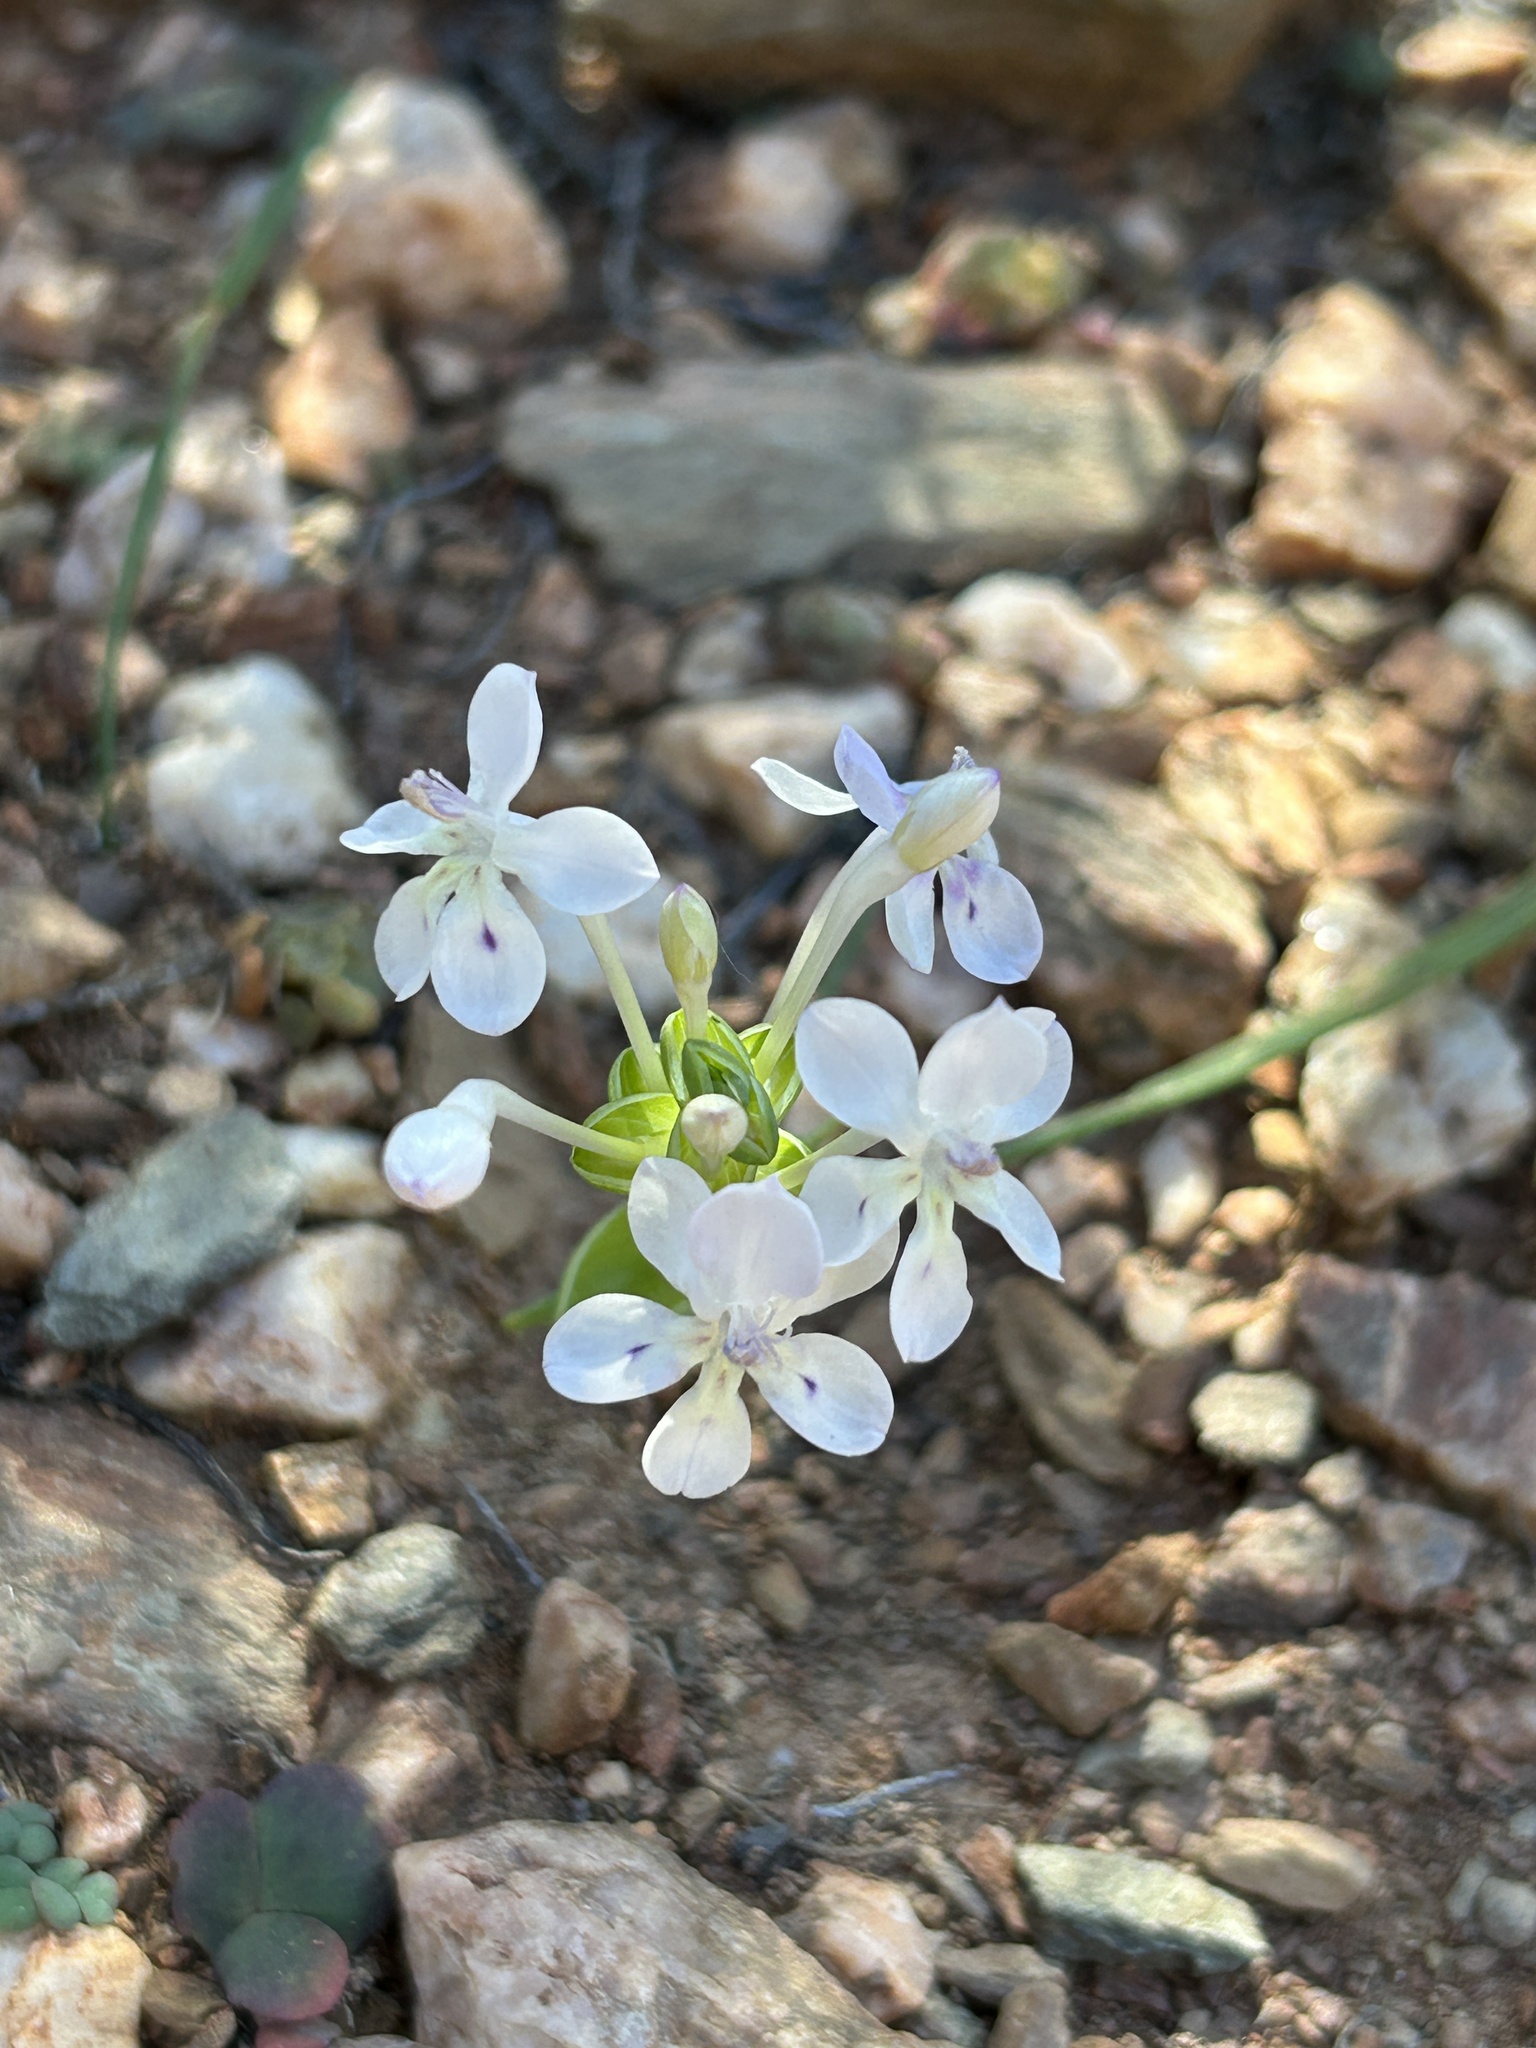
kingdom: Plantae
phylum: Tracheophyta
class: Liliopsida
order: Asparagales
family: Iridaceae
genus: Lapeirousia
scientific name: Lapeirousia pyramidalis
